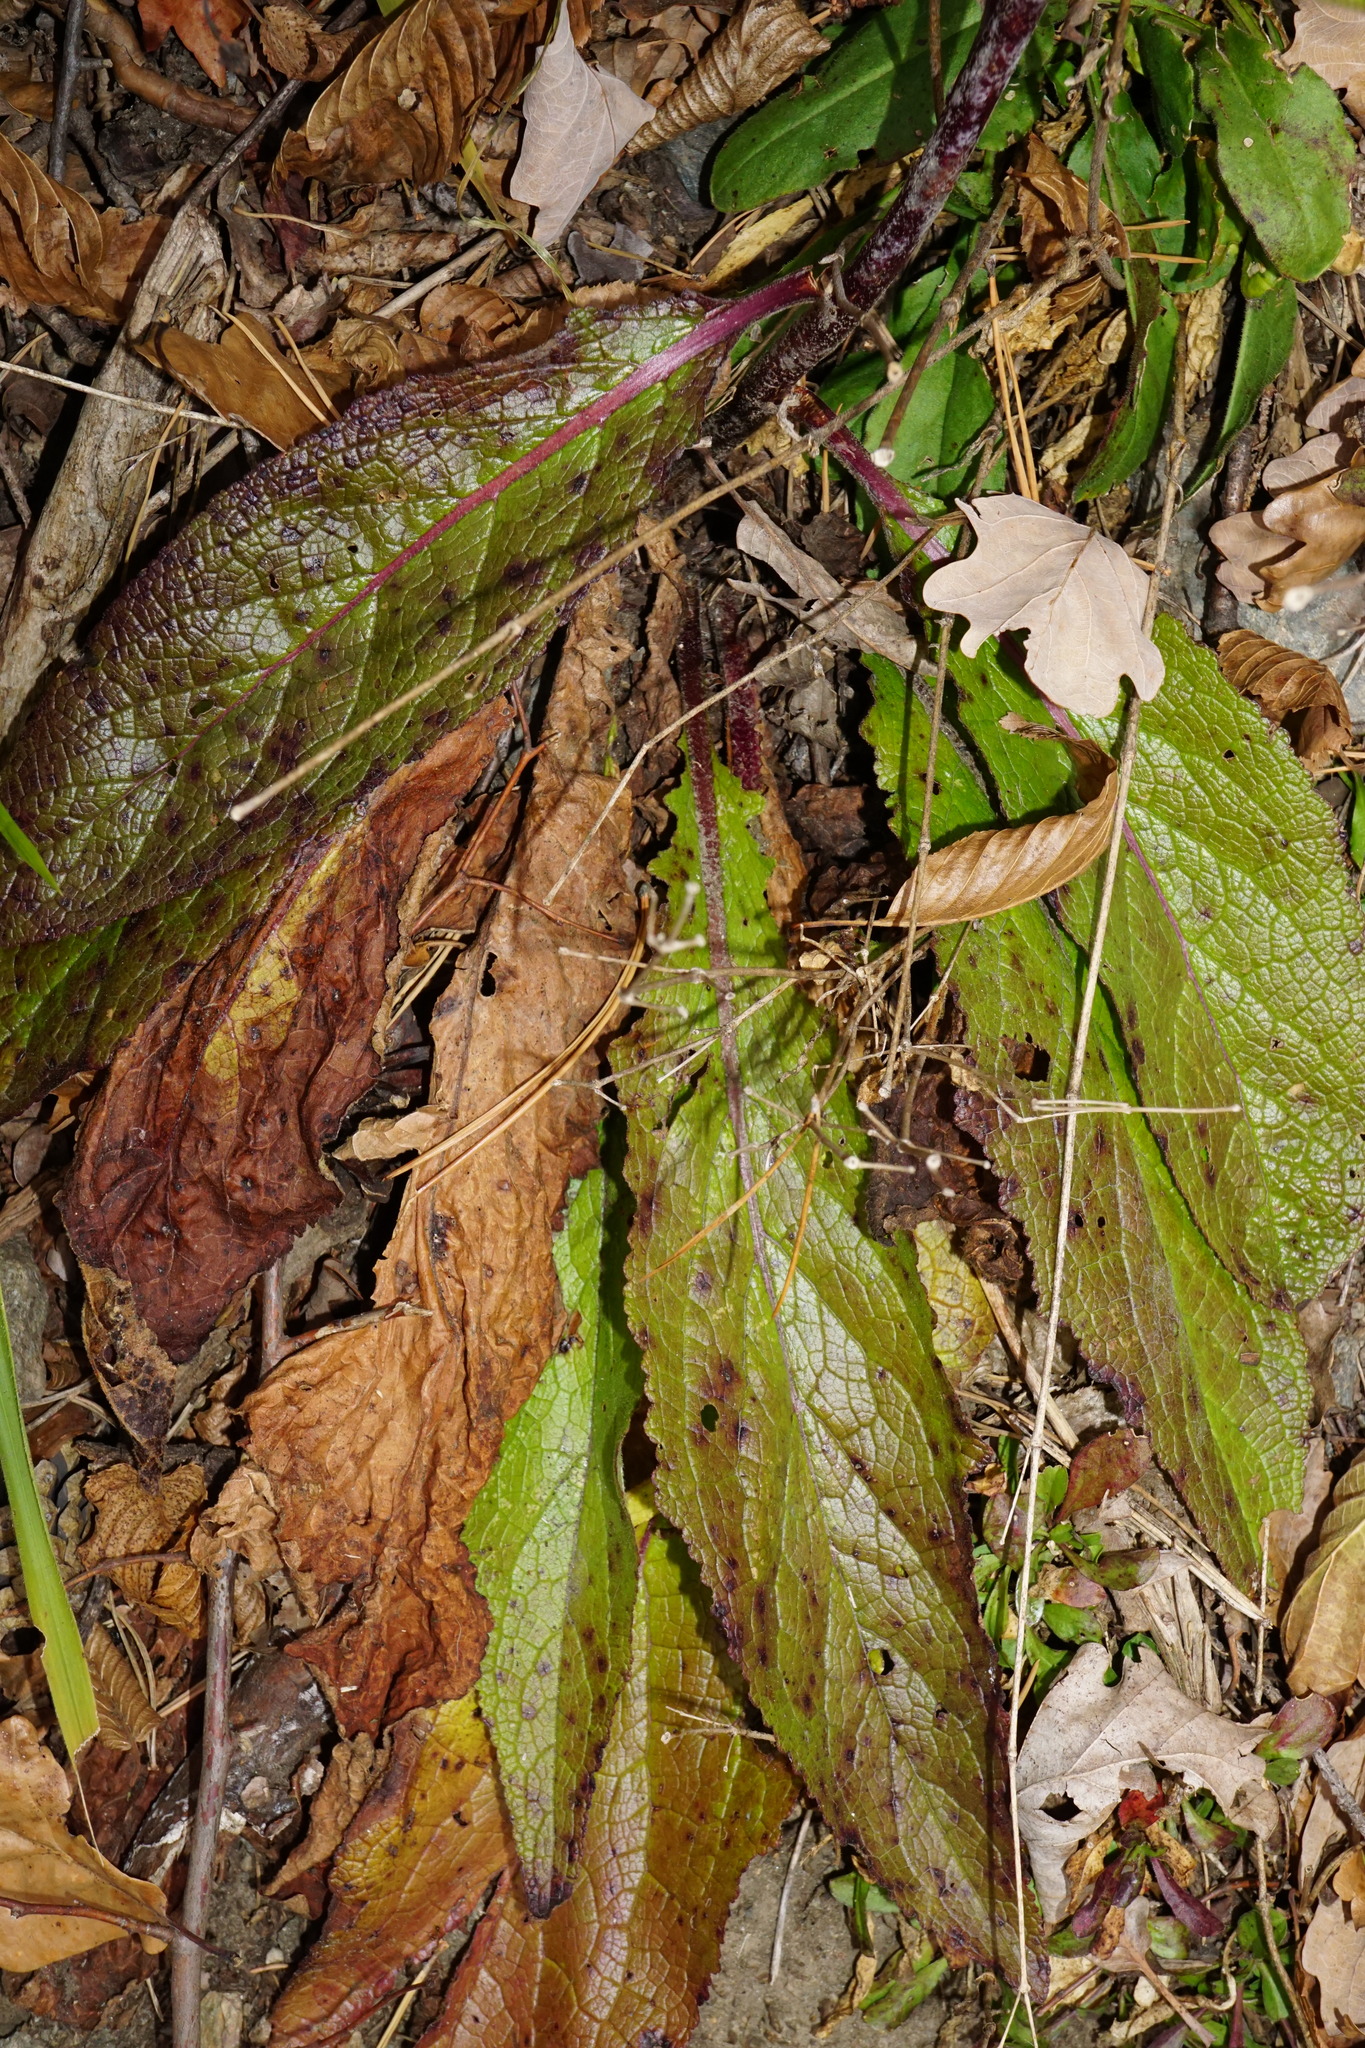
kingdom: Plantae
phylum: Tracheophyta
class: Magnoliopsida
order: Lamiales
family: Scrophulariaceae
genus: Verbascum
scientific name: Verbascum chaixii
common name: Nettle-leaved mullein
